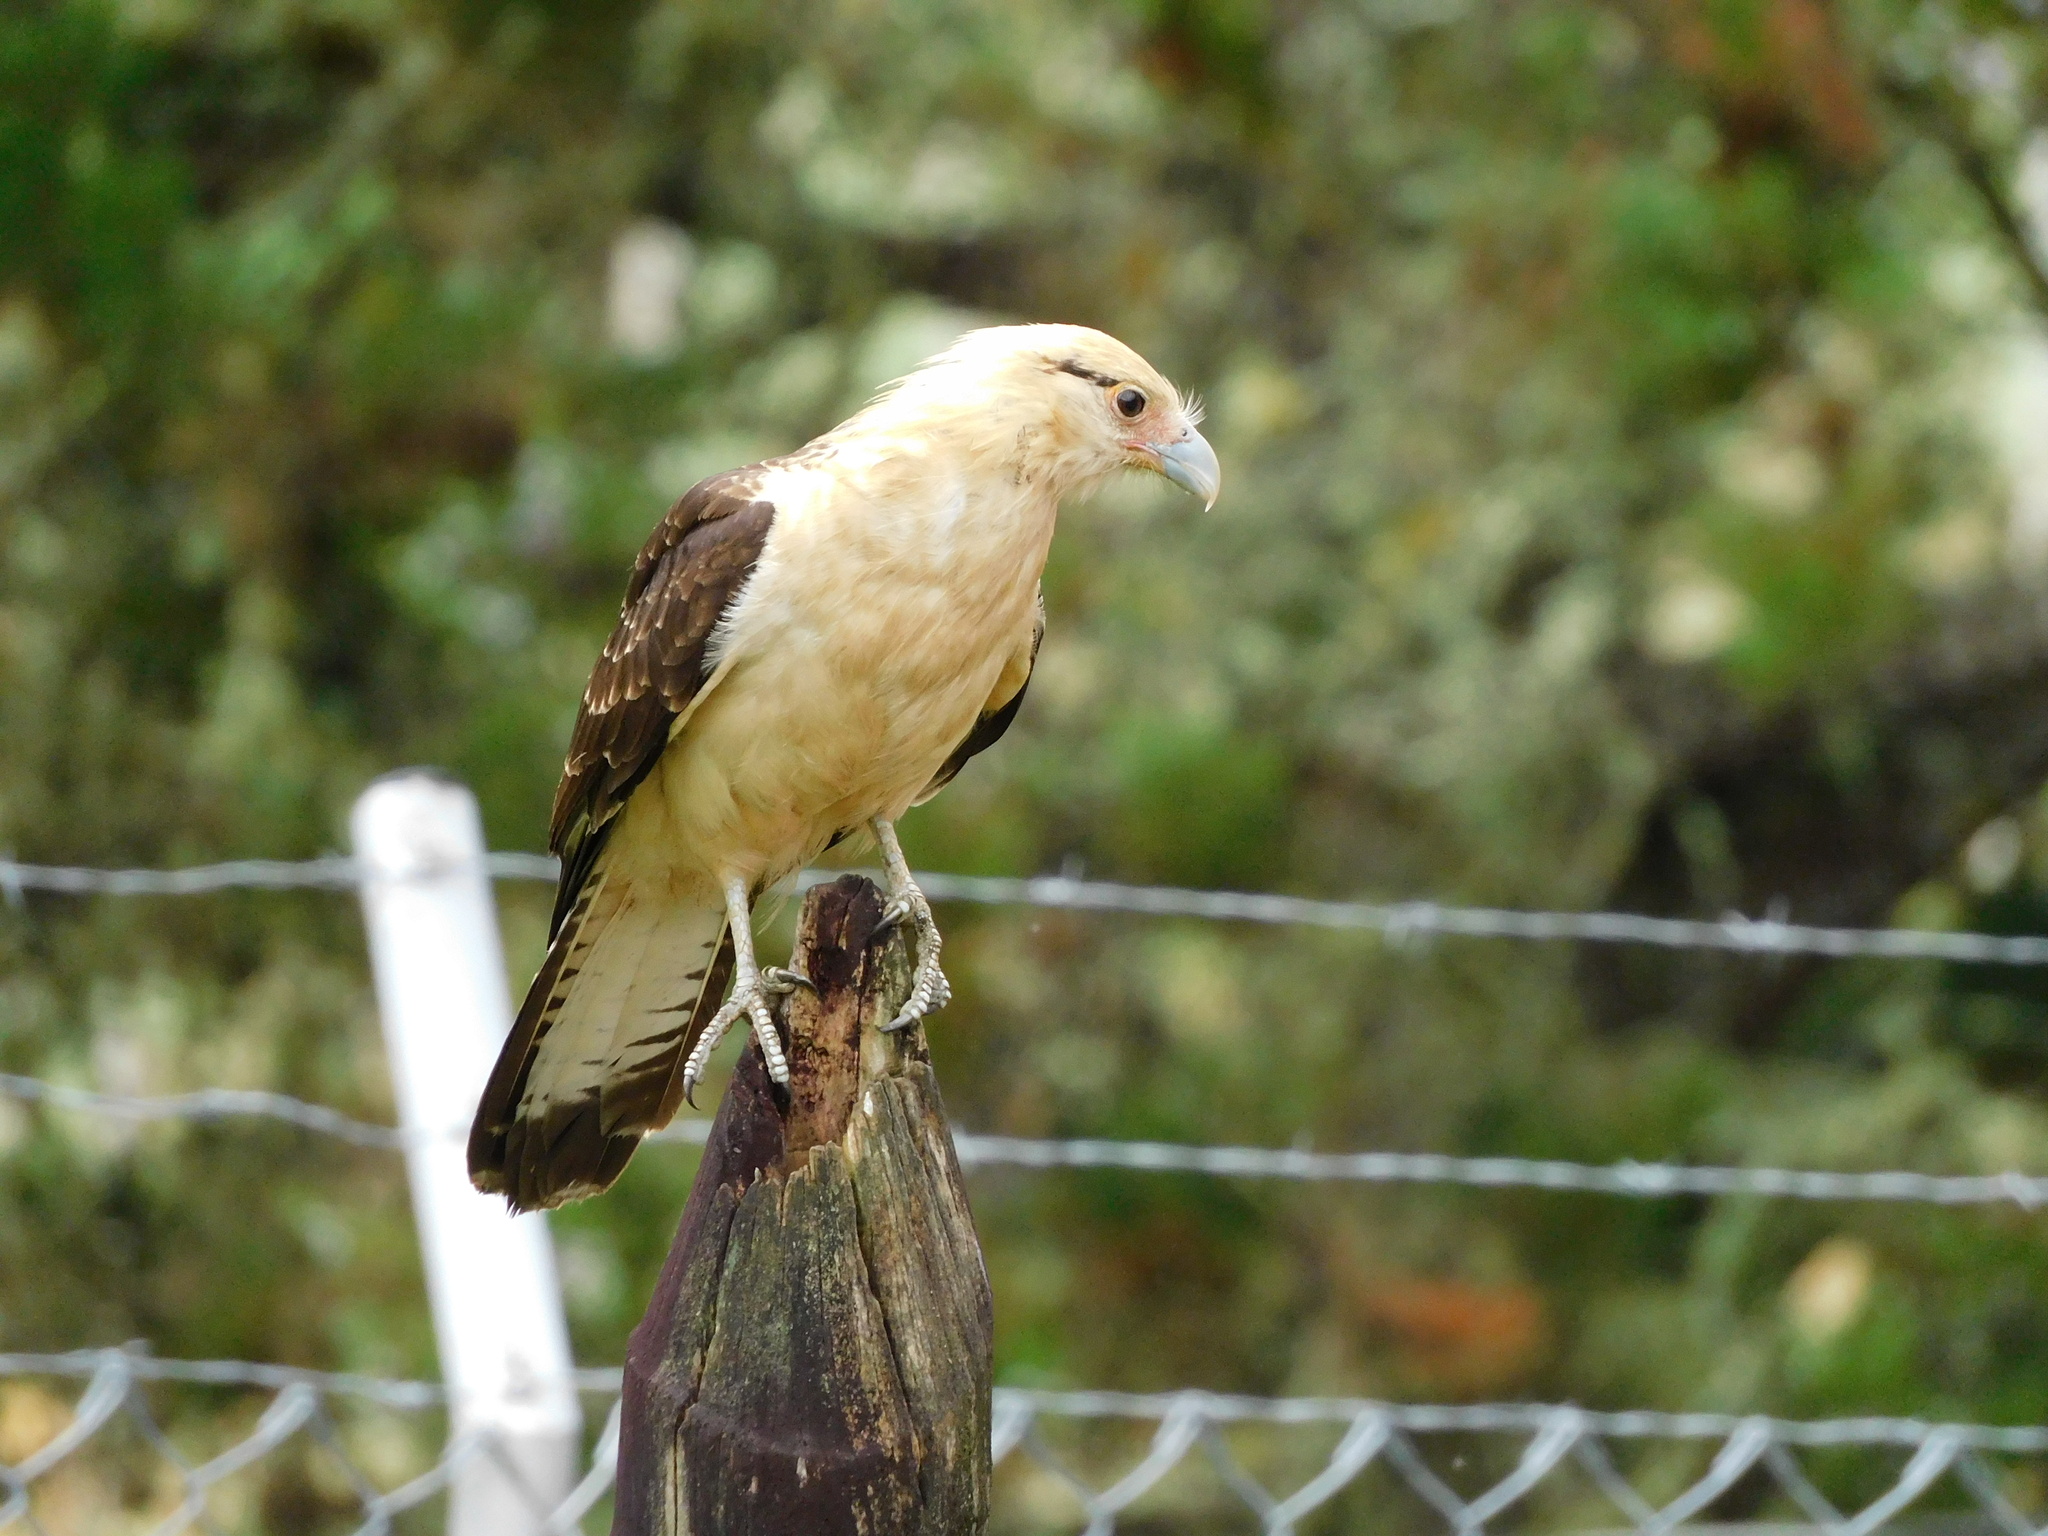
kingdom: Animalia
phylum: Chordata
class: Aves
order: Falconiformes
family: Falconidae
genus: Daptrius
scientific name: Daptrius
